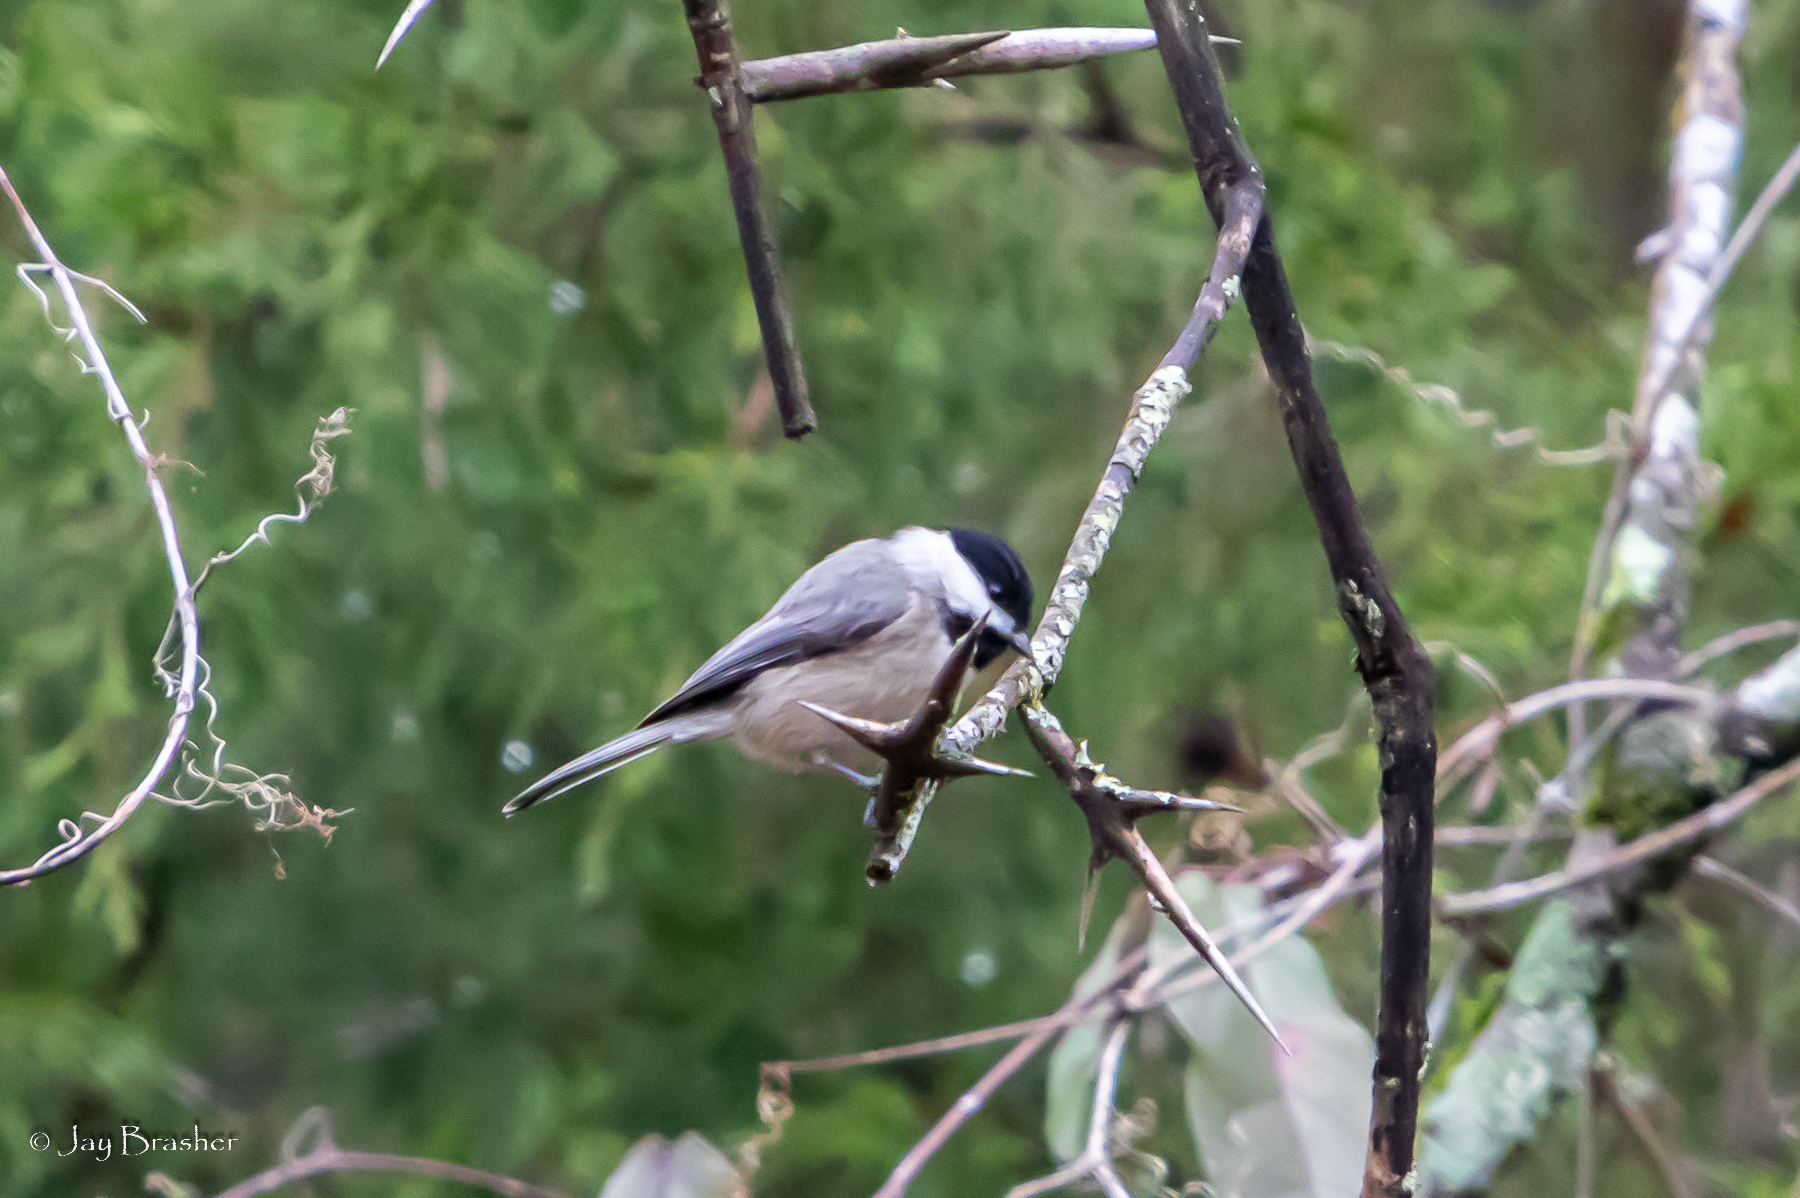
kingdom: Animalia
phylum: Chordata
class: Aves
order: Passeriformes
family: Paridae
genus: Poecile
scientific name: Poecile carolinensis
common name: Carolina chickadee
